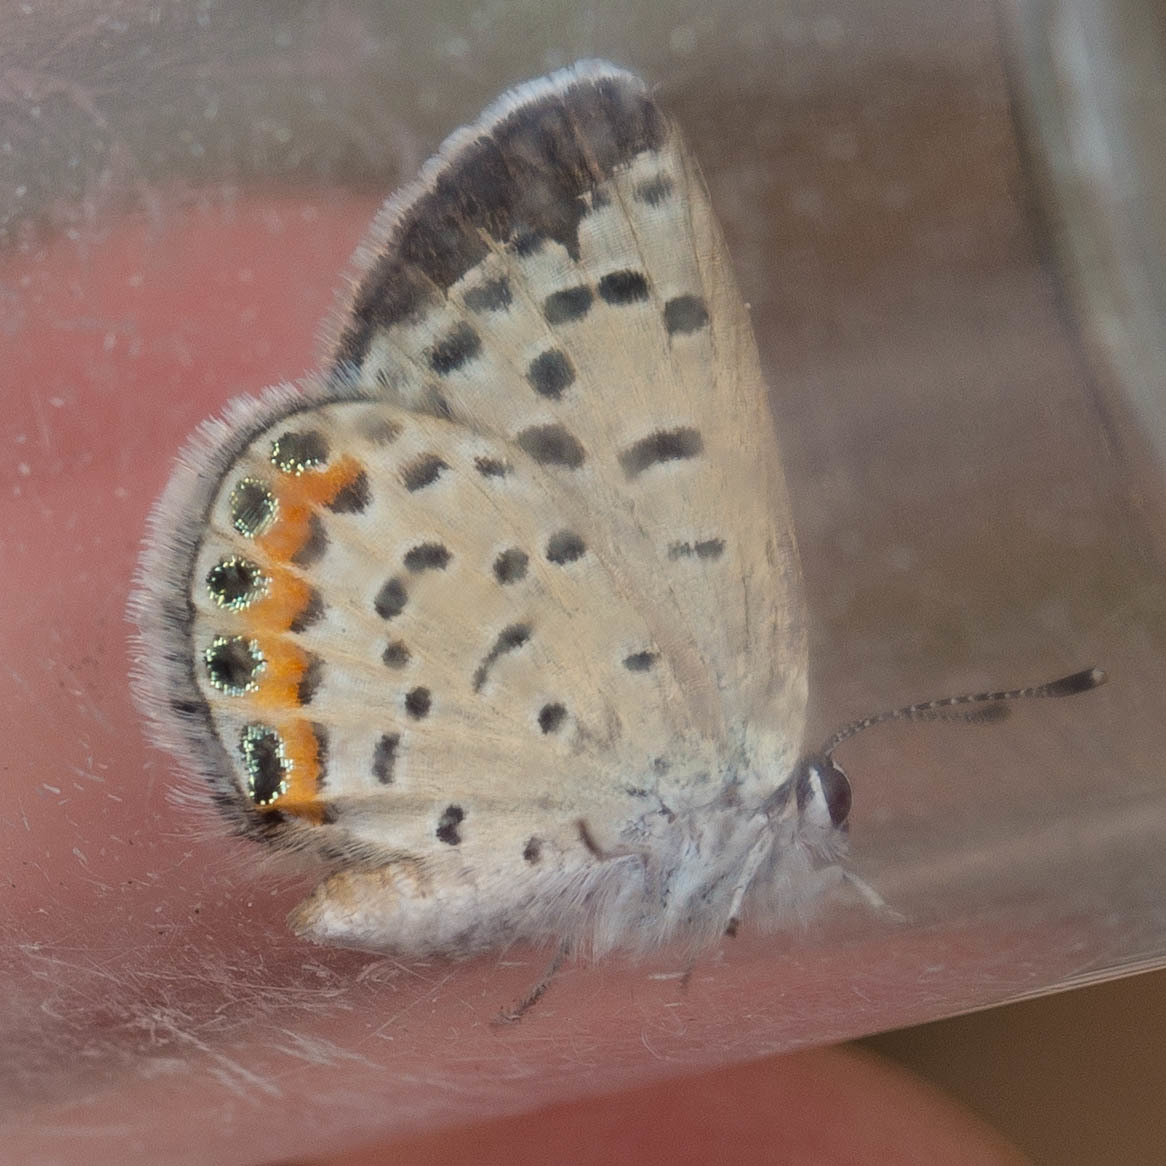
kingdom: Animalia
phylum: Arthropoda
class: Insecta
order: Lepidoptera
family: Lycaenidae
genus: Icaricia
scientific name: Icaricia acmon
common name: Acmon blue
